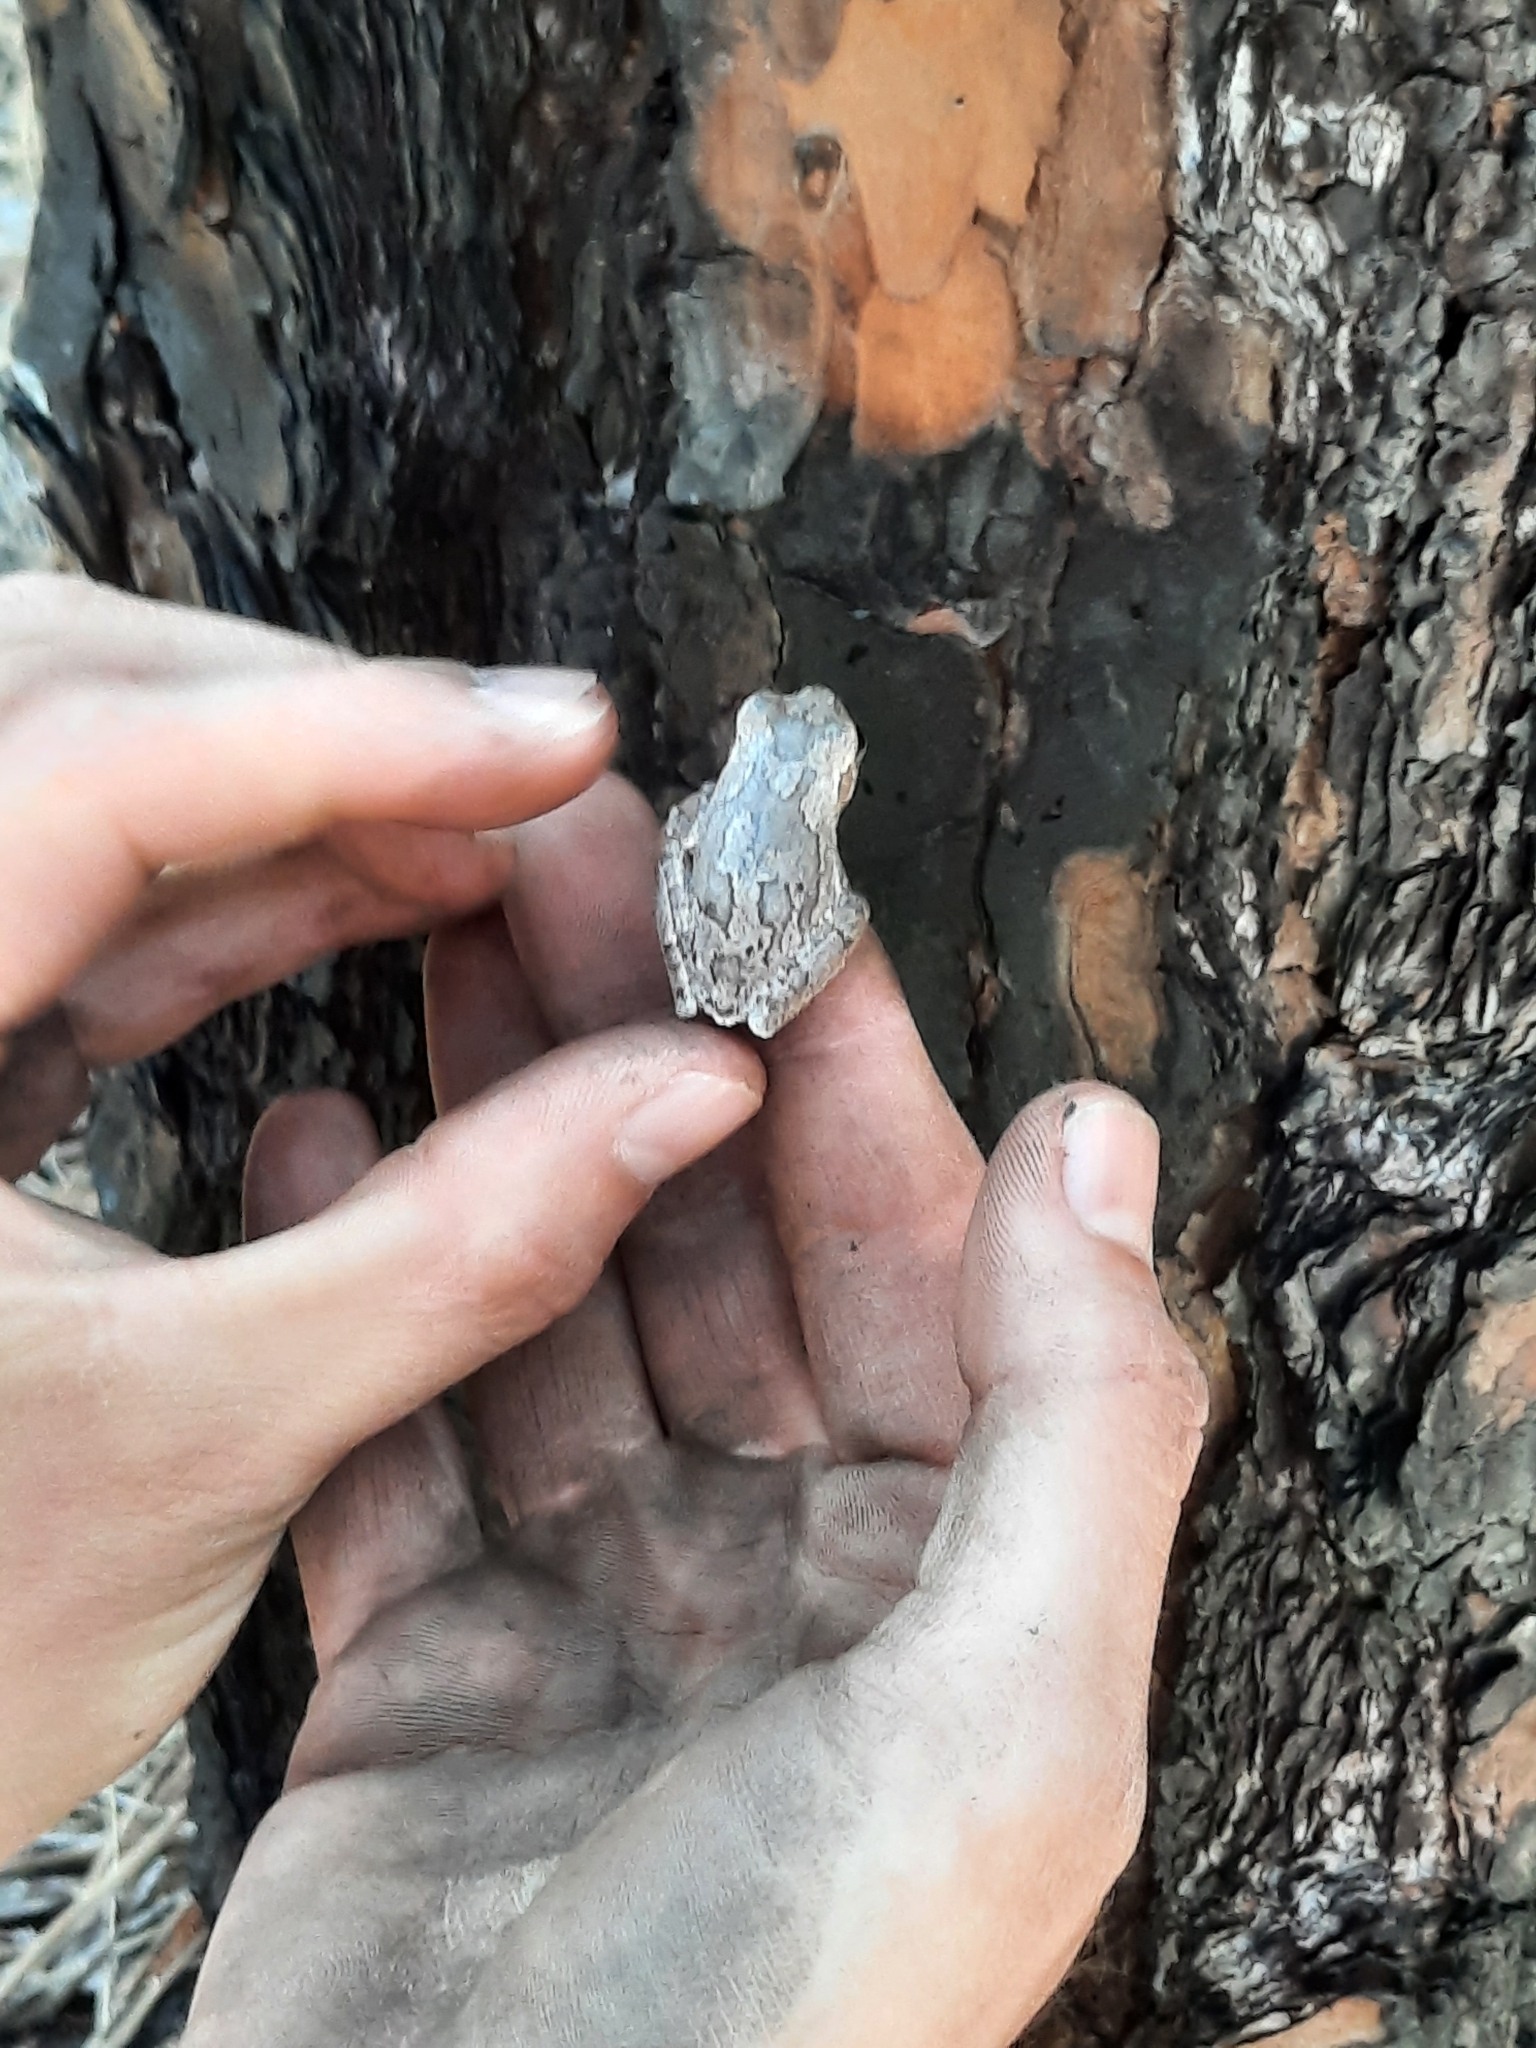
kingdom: Animalia
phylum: Chordata
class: Amphibia
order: Anura
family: Hylidae
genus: Hyla
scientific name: Hyla femoralis
